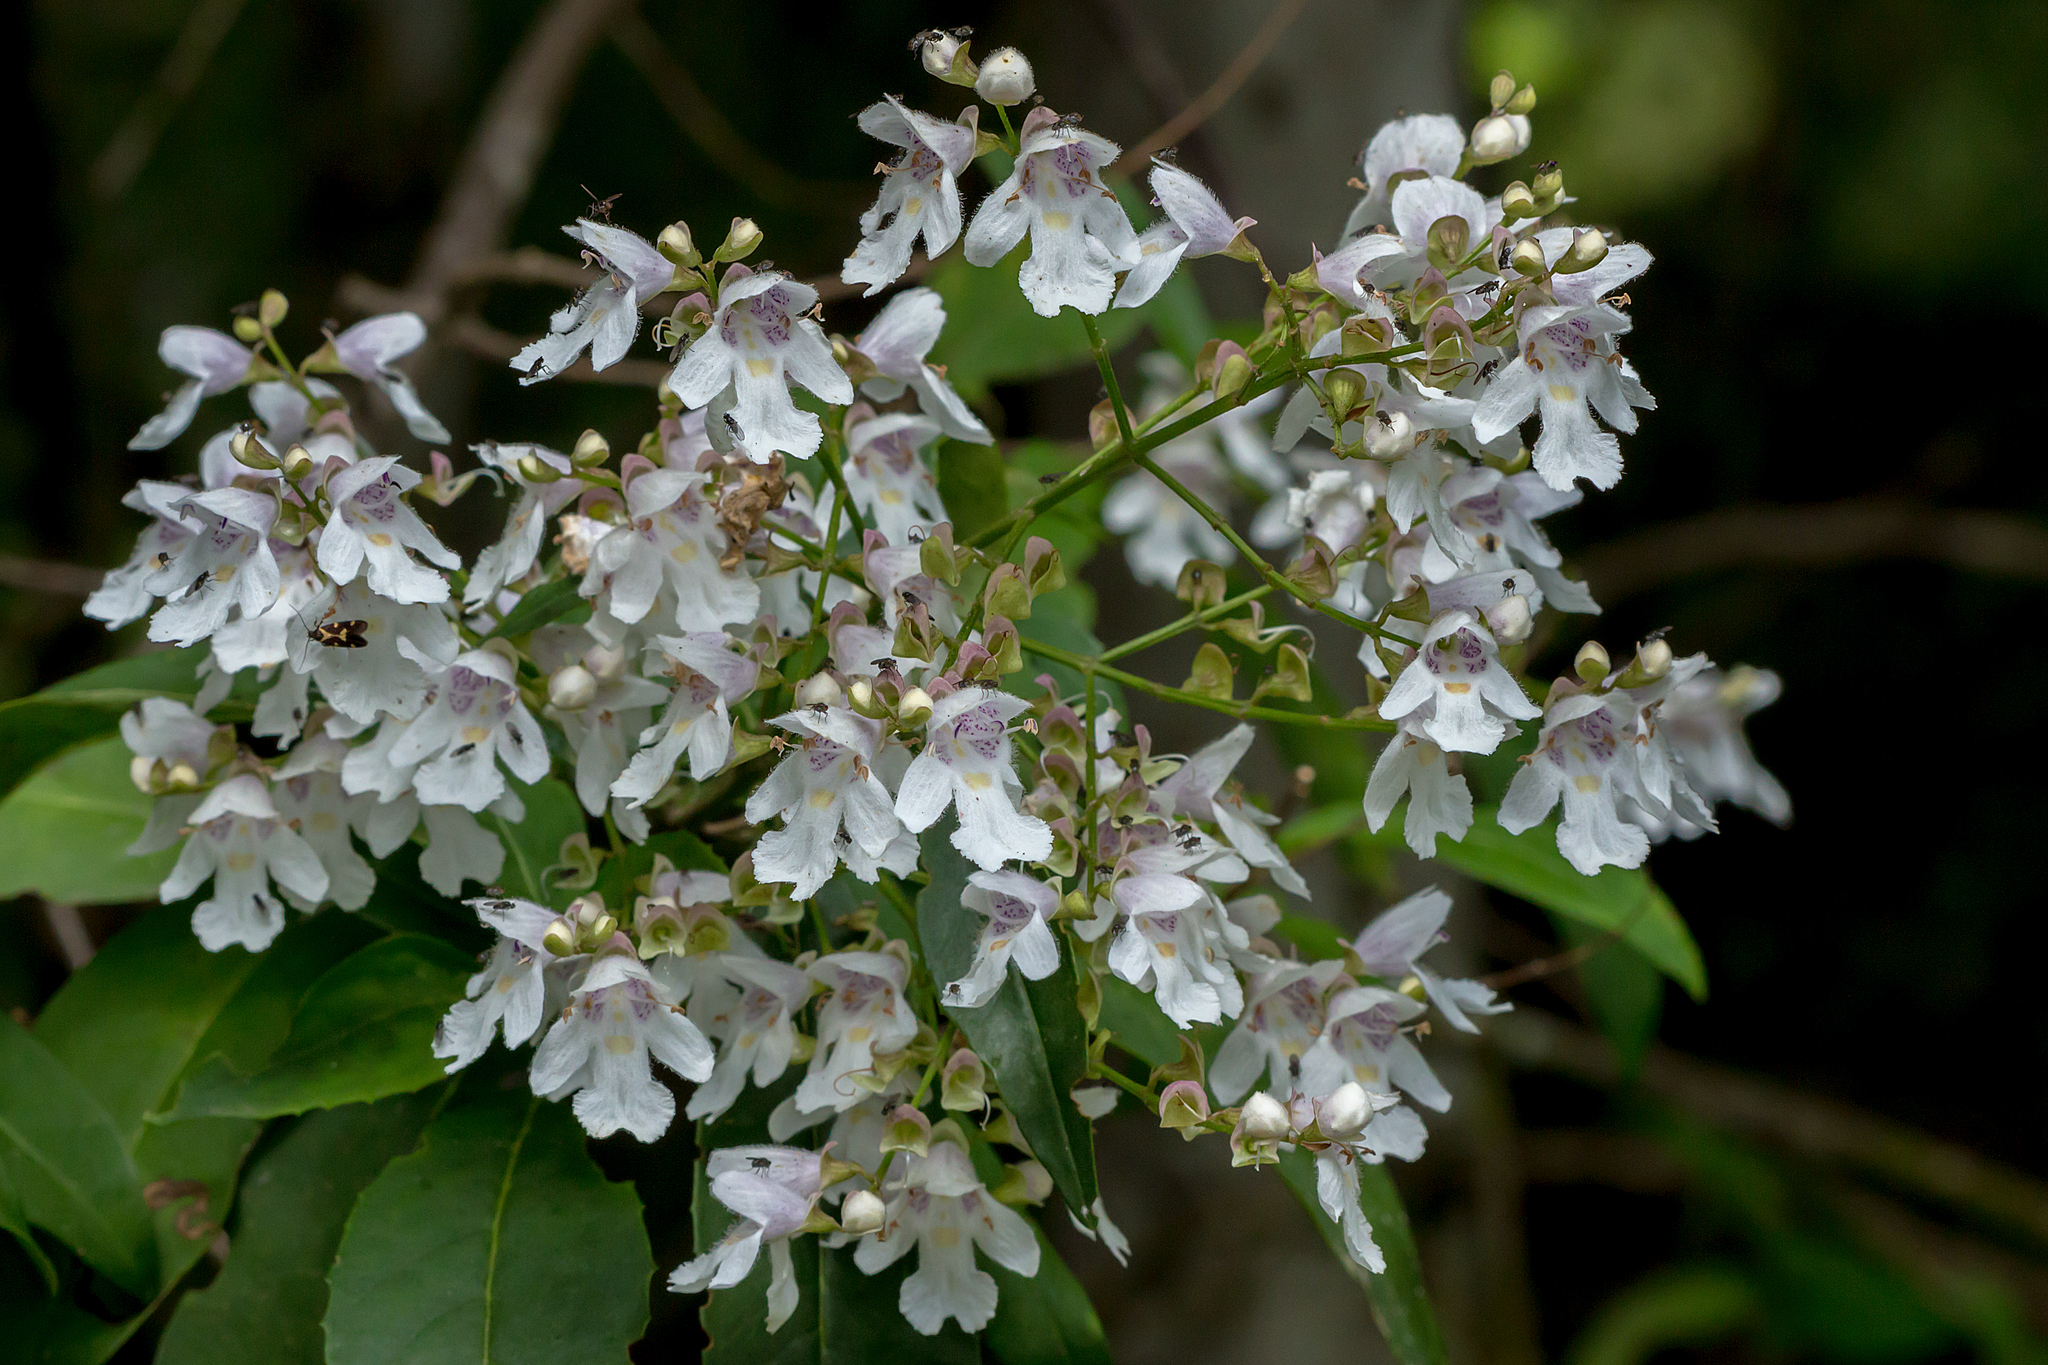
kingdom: Plantae
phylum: Tracheophyta
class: Magnoliopsida
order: Lamiales
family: Lamiaceae
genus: Prostanthera
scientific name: Prostanthera lasianthos
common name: Mountain-lilac
